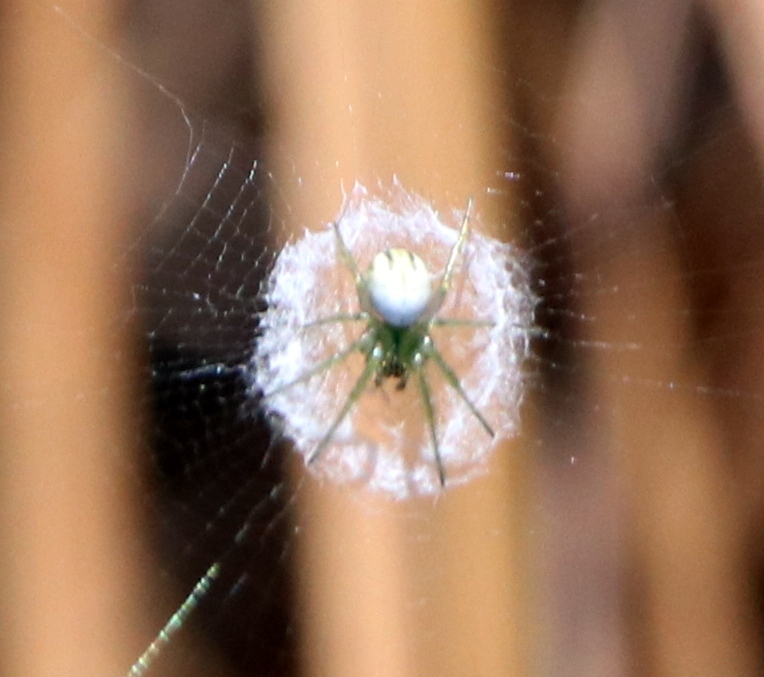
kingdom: Animalia
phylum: Arthropoda
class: Arachnida
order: Araneae
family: Araneidae
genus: Mangora
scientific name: Mangora gibberosa
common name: Lined orbweaver
